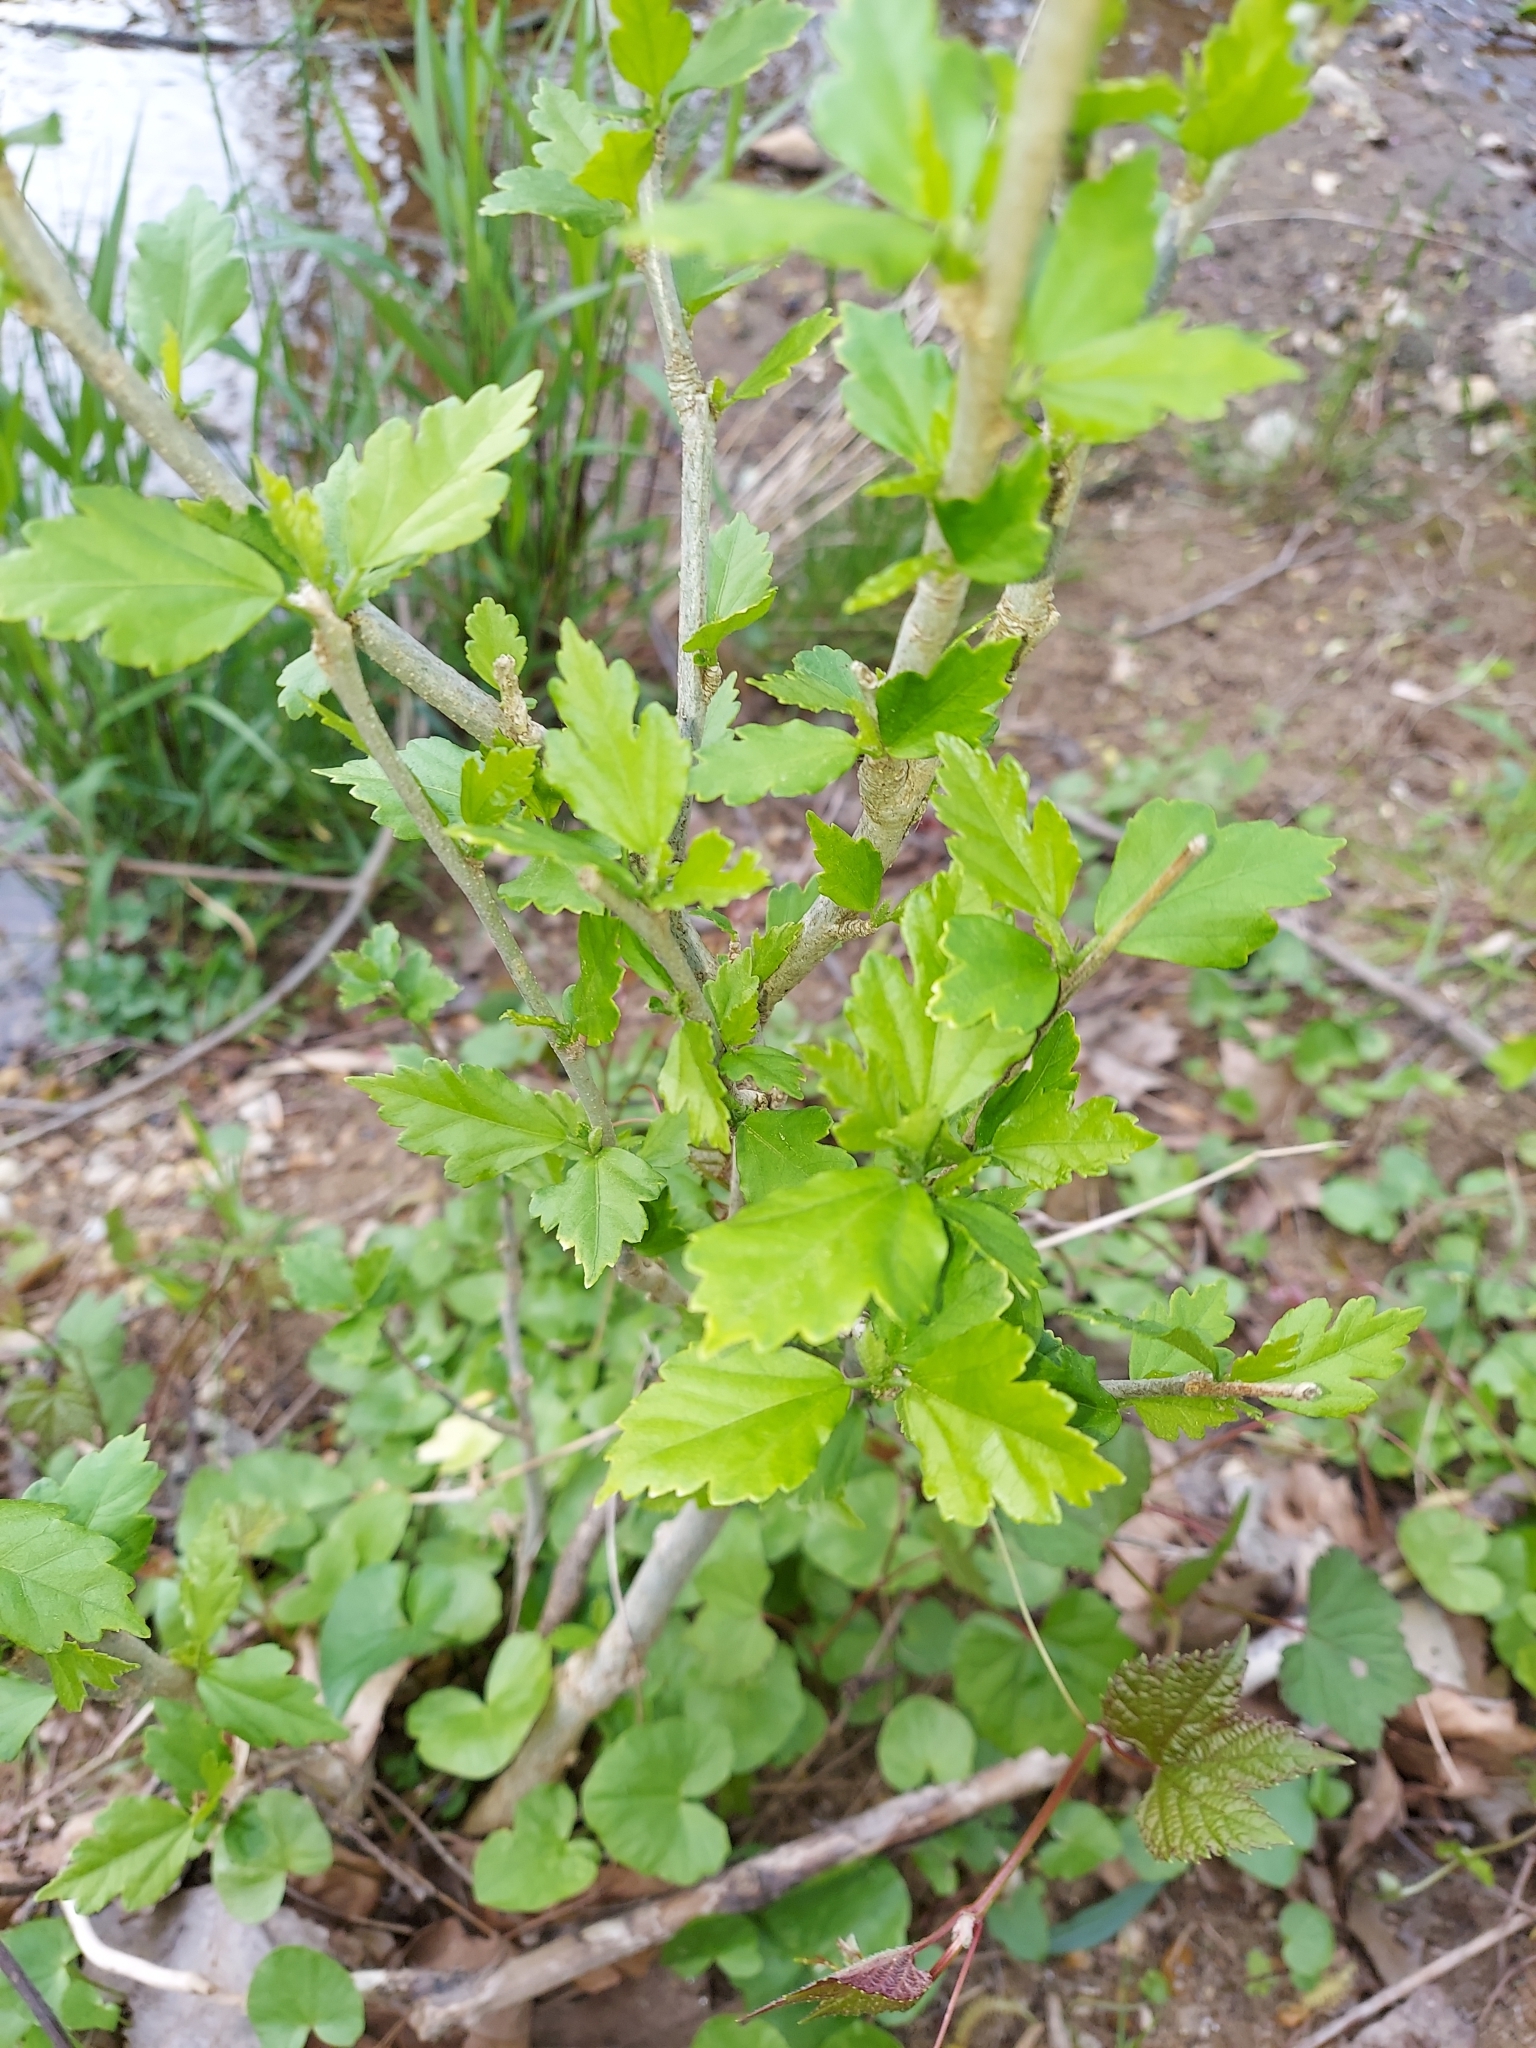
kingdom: Plantae
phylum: Tracheophyta
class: Magnoliopsida
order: Malvales
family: Malvaceae
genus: Hibiscus
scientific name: Hibiscus syriacus
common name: Syrian ketmia
